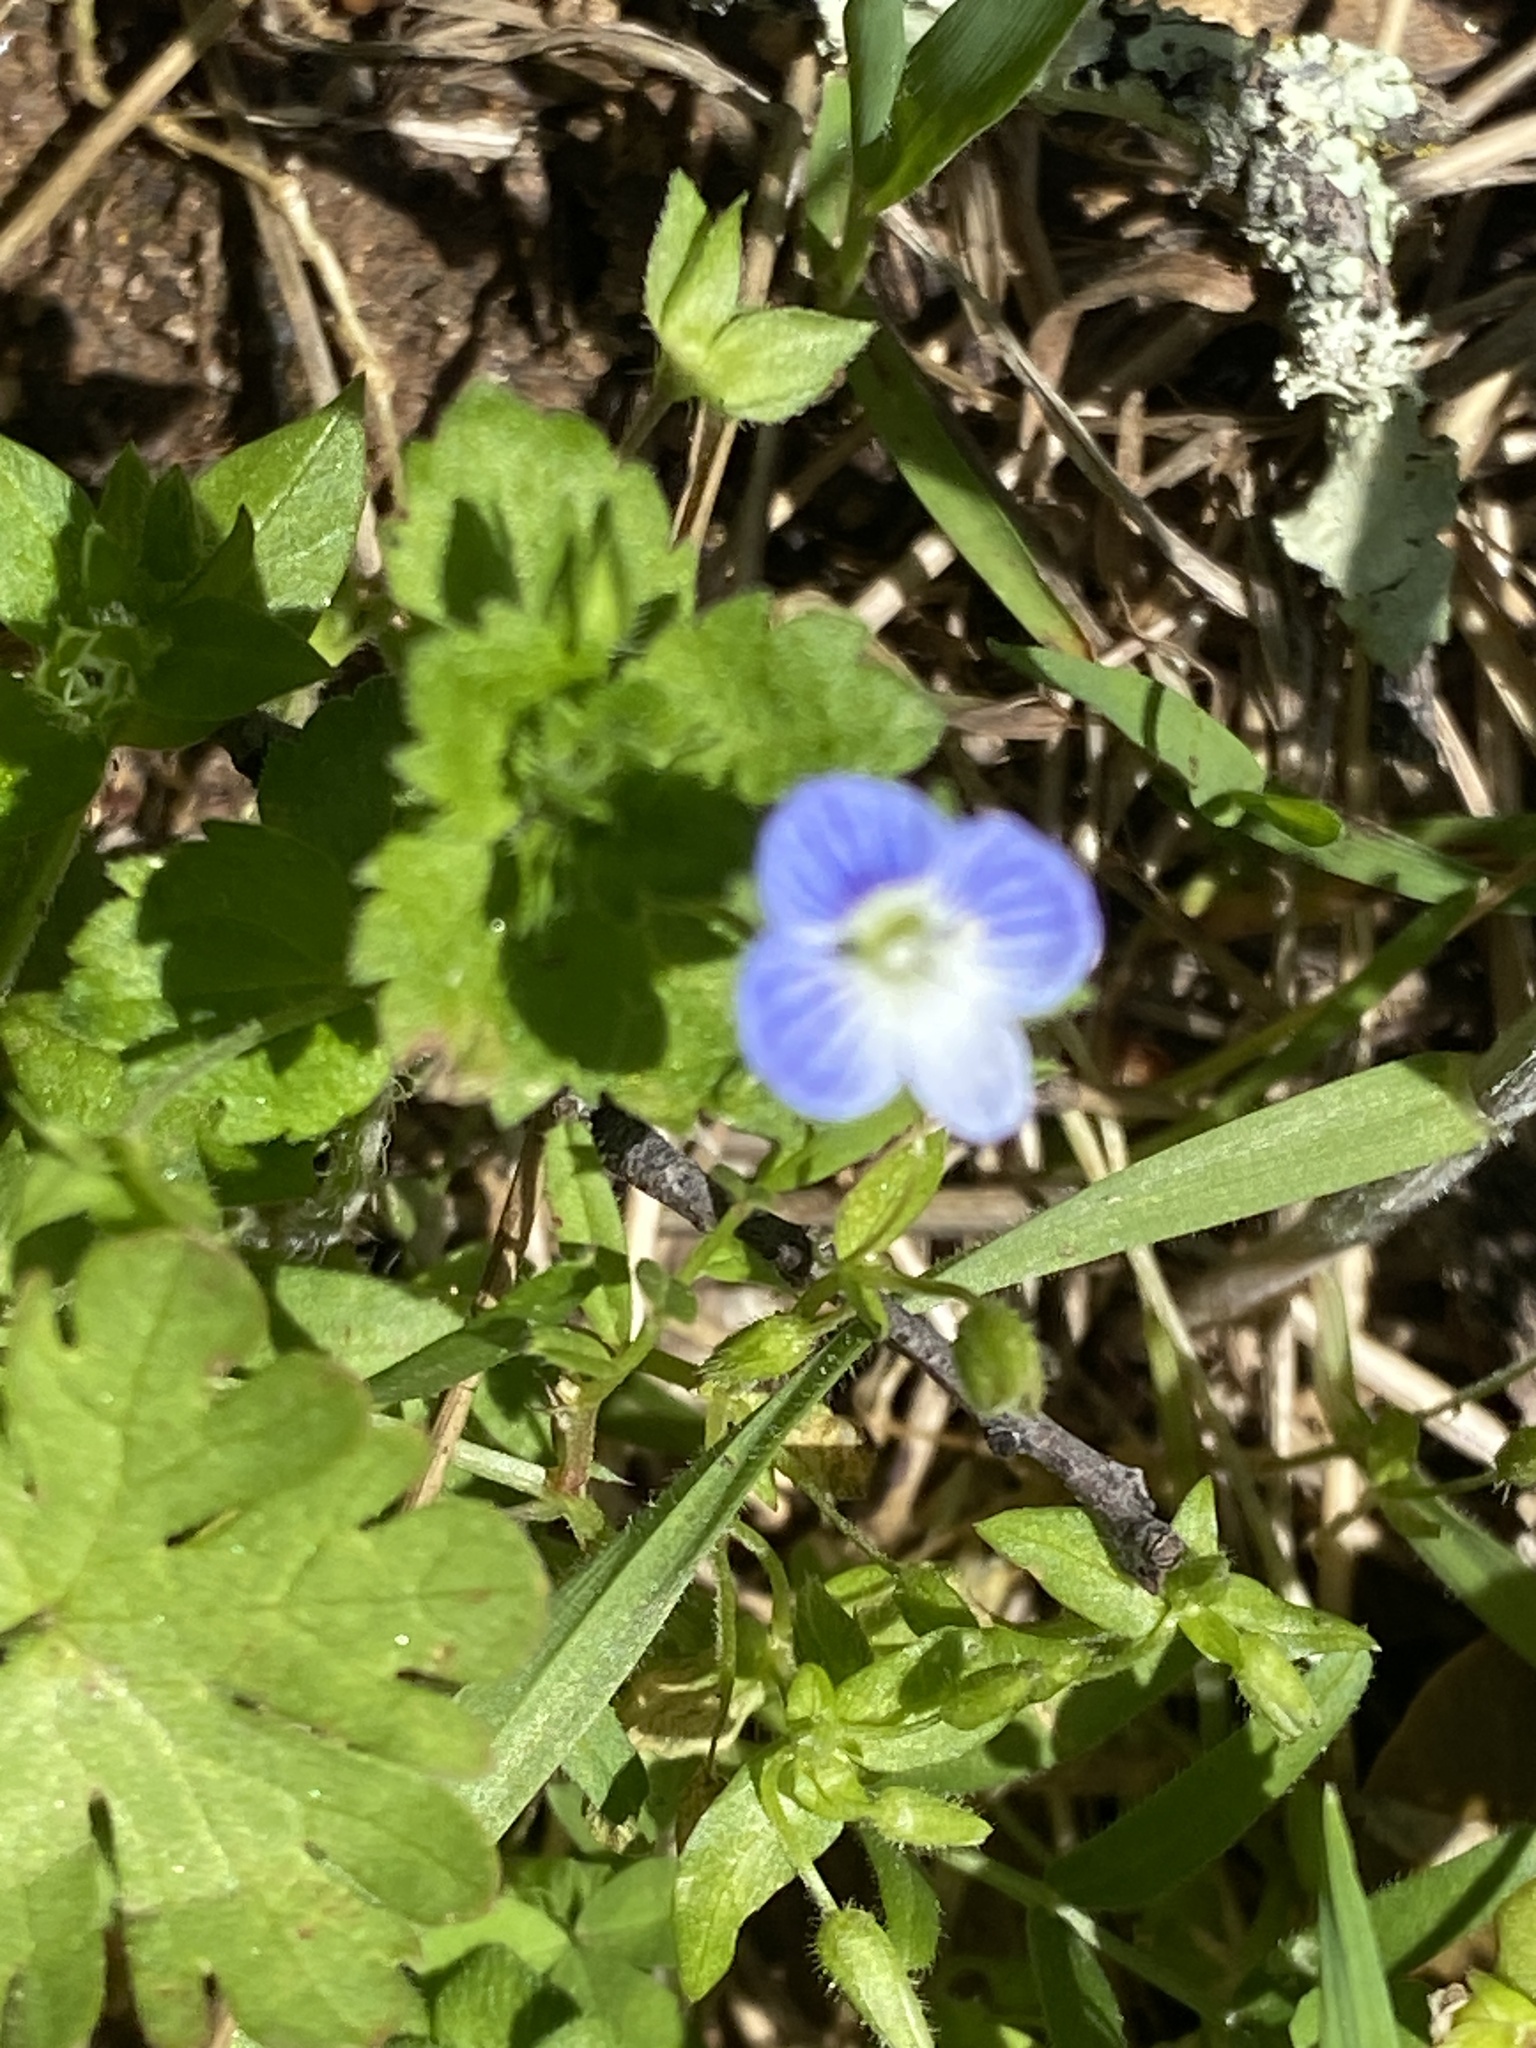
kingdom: Plantae
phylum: Tracheophyta
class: Magnoliopsida
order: Lamiales
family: Plantaginaceae
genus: Veronica
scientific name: Veronica persica
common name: Common field-speedwell
